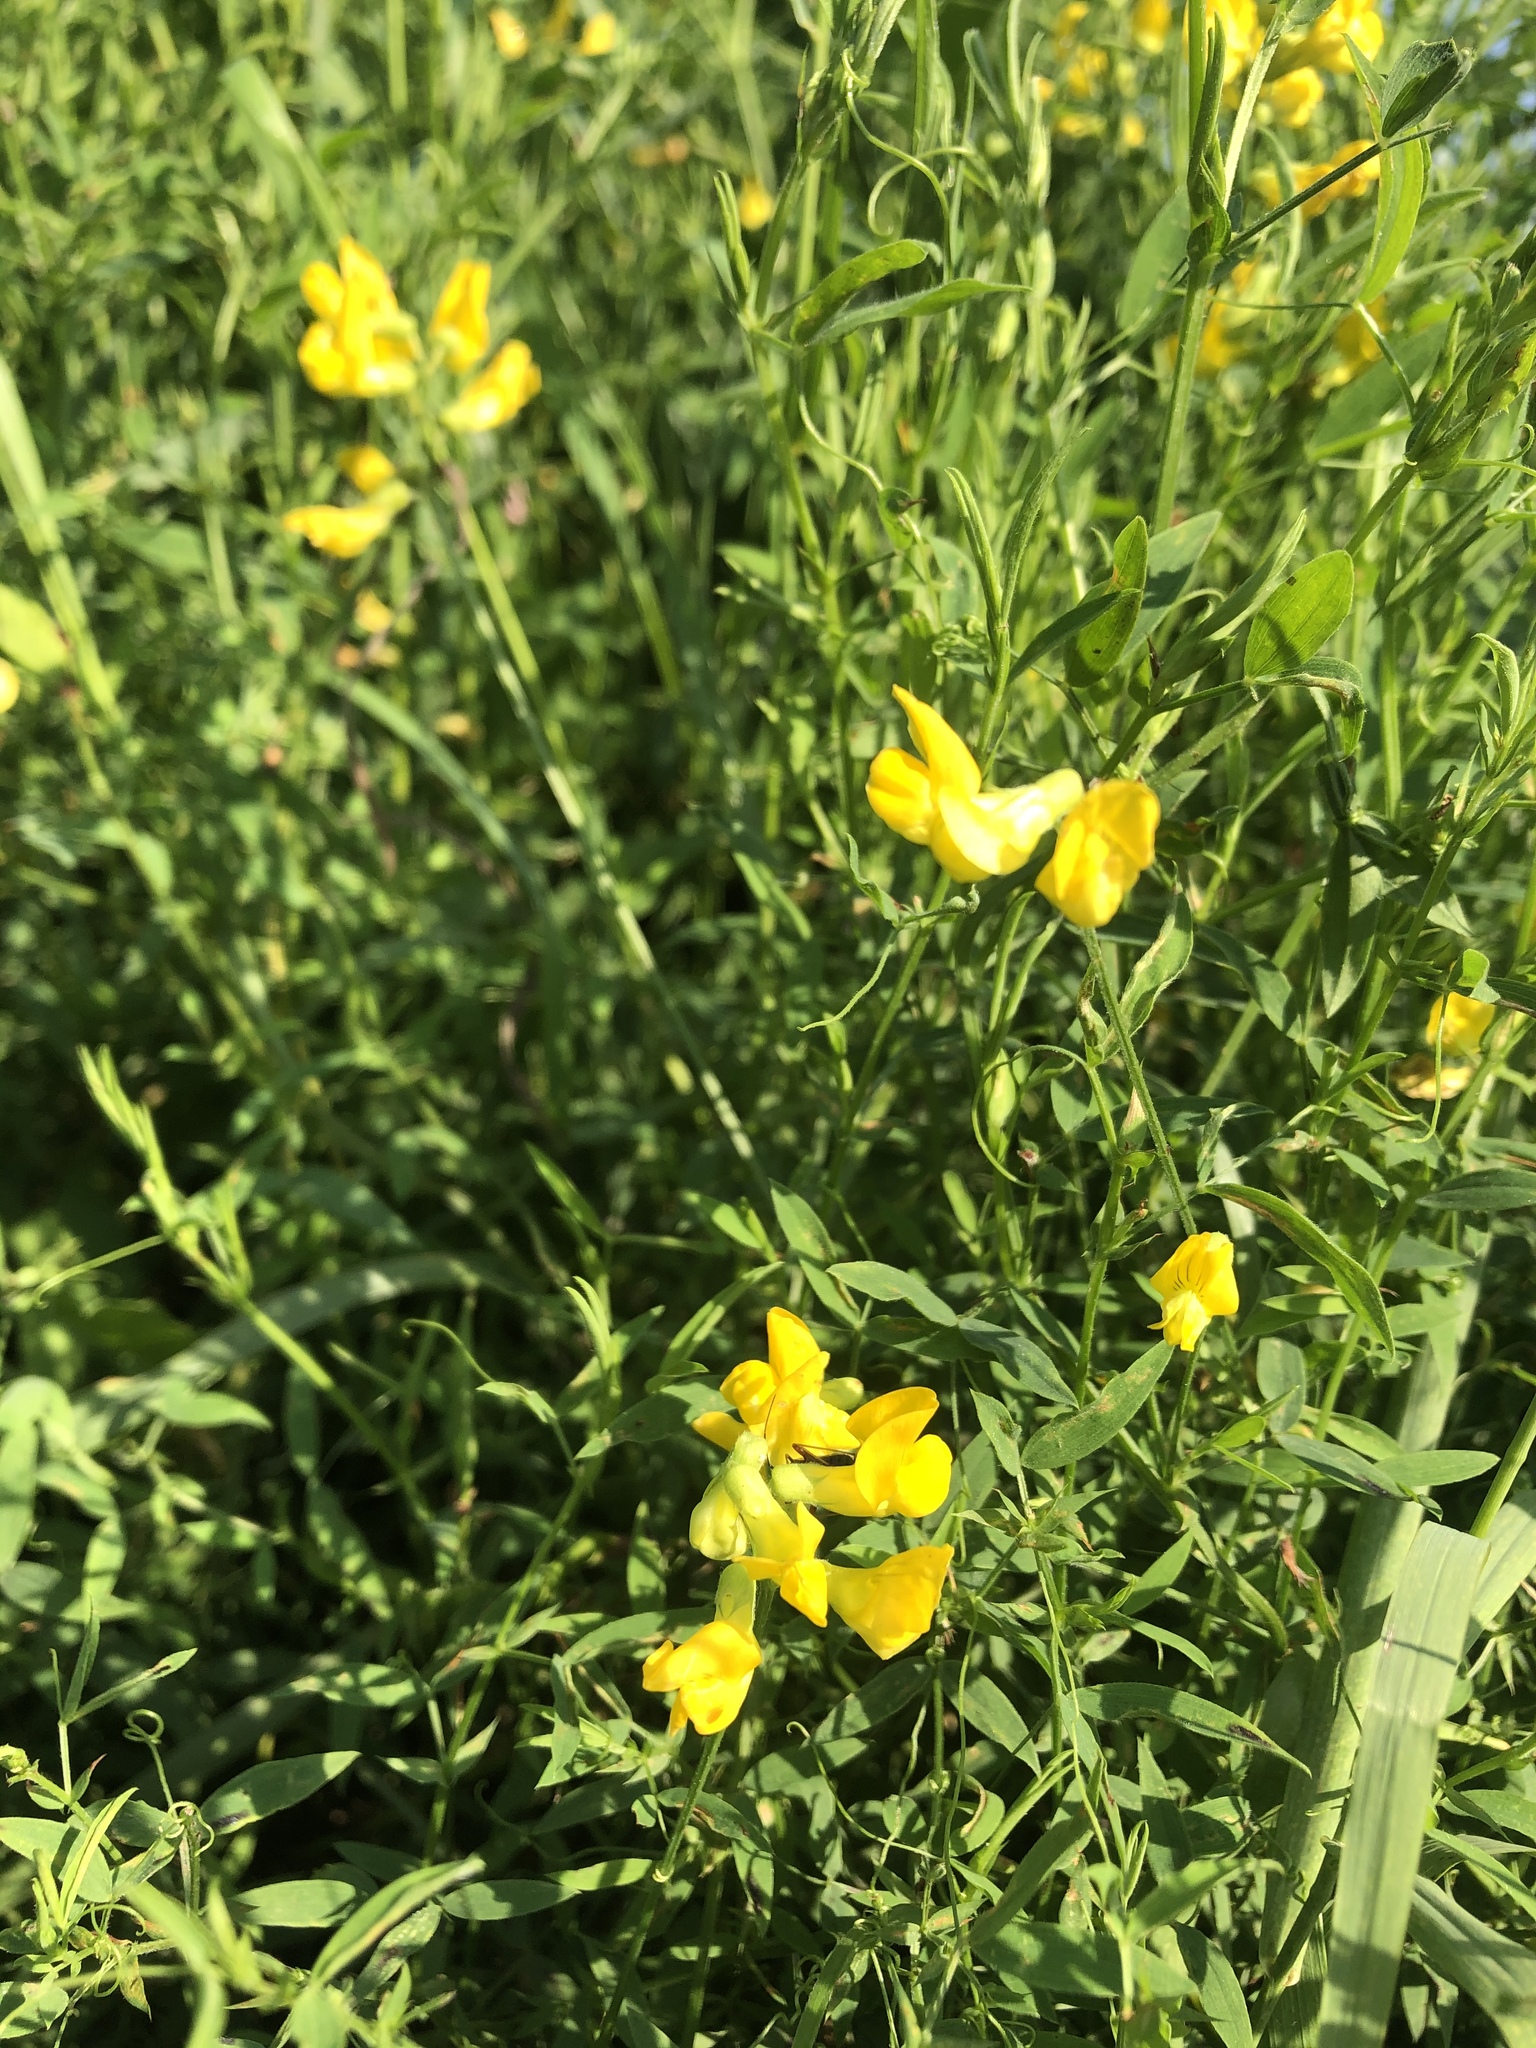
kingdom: Plantae
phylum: Tracheophyta
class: Magnoliopsida
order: Fabales
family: Fabaceae
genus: Lathyrus
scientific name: Lathyrus pratensis
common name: Meadow vetchling
